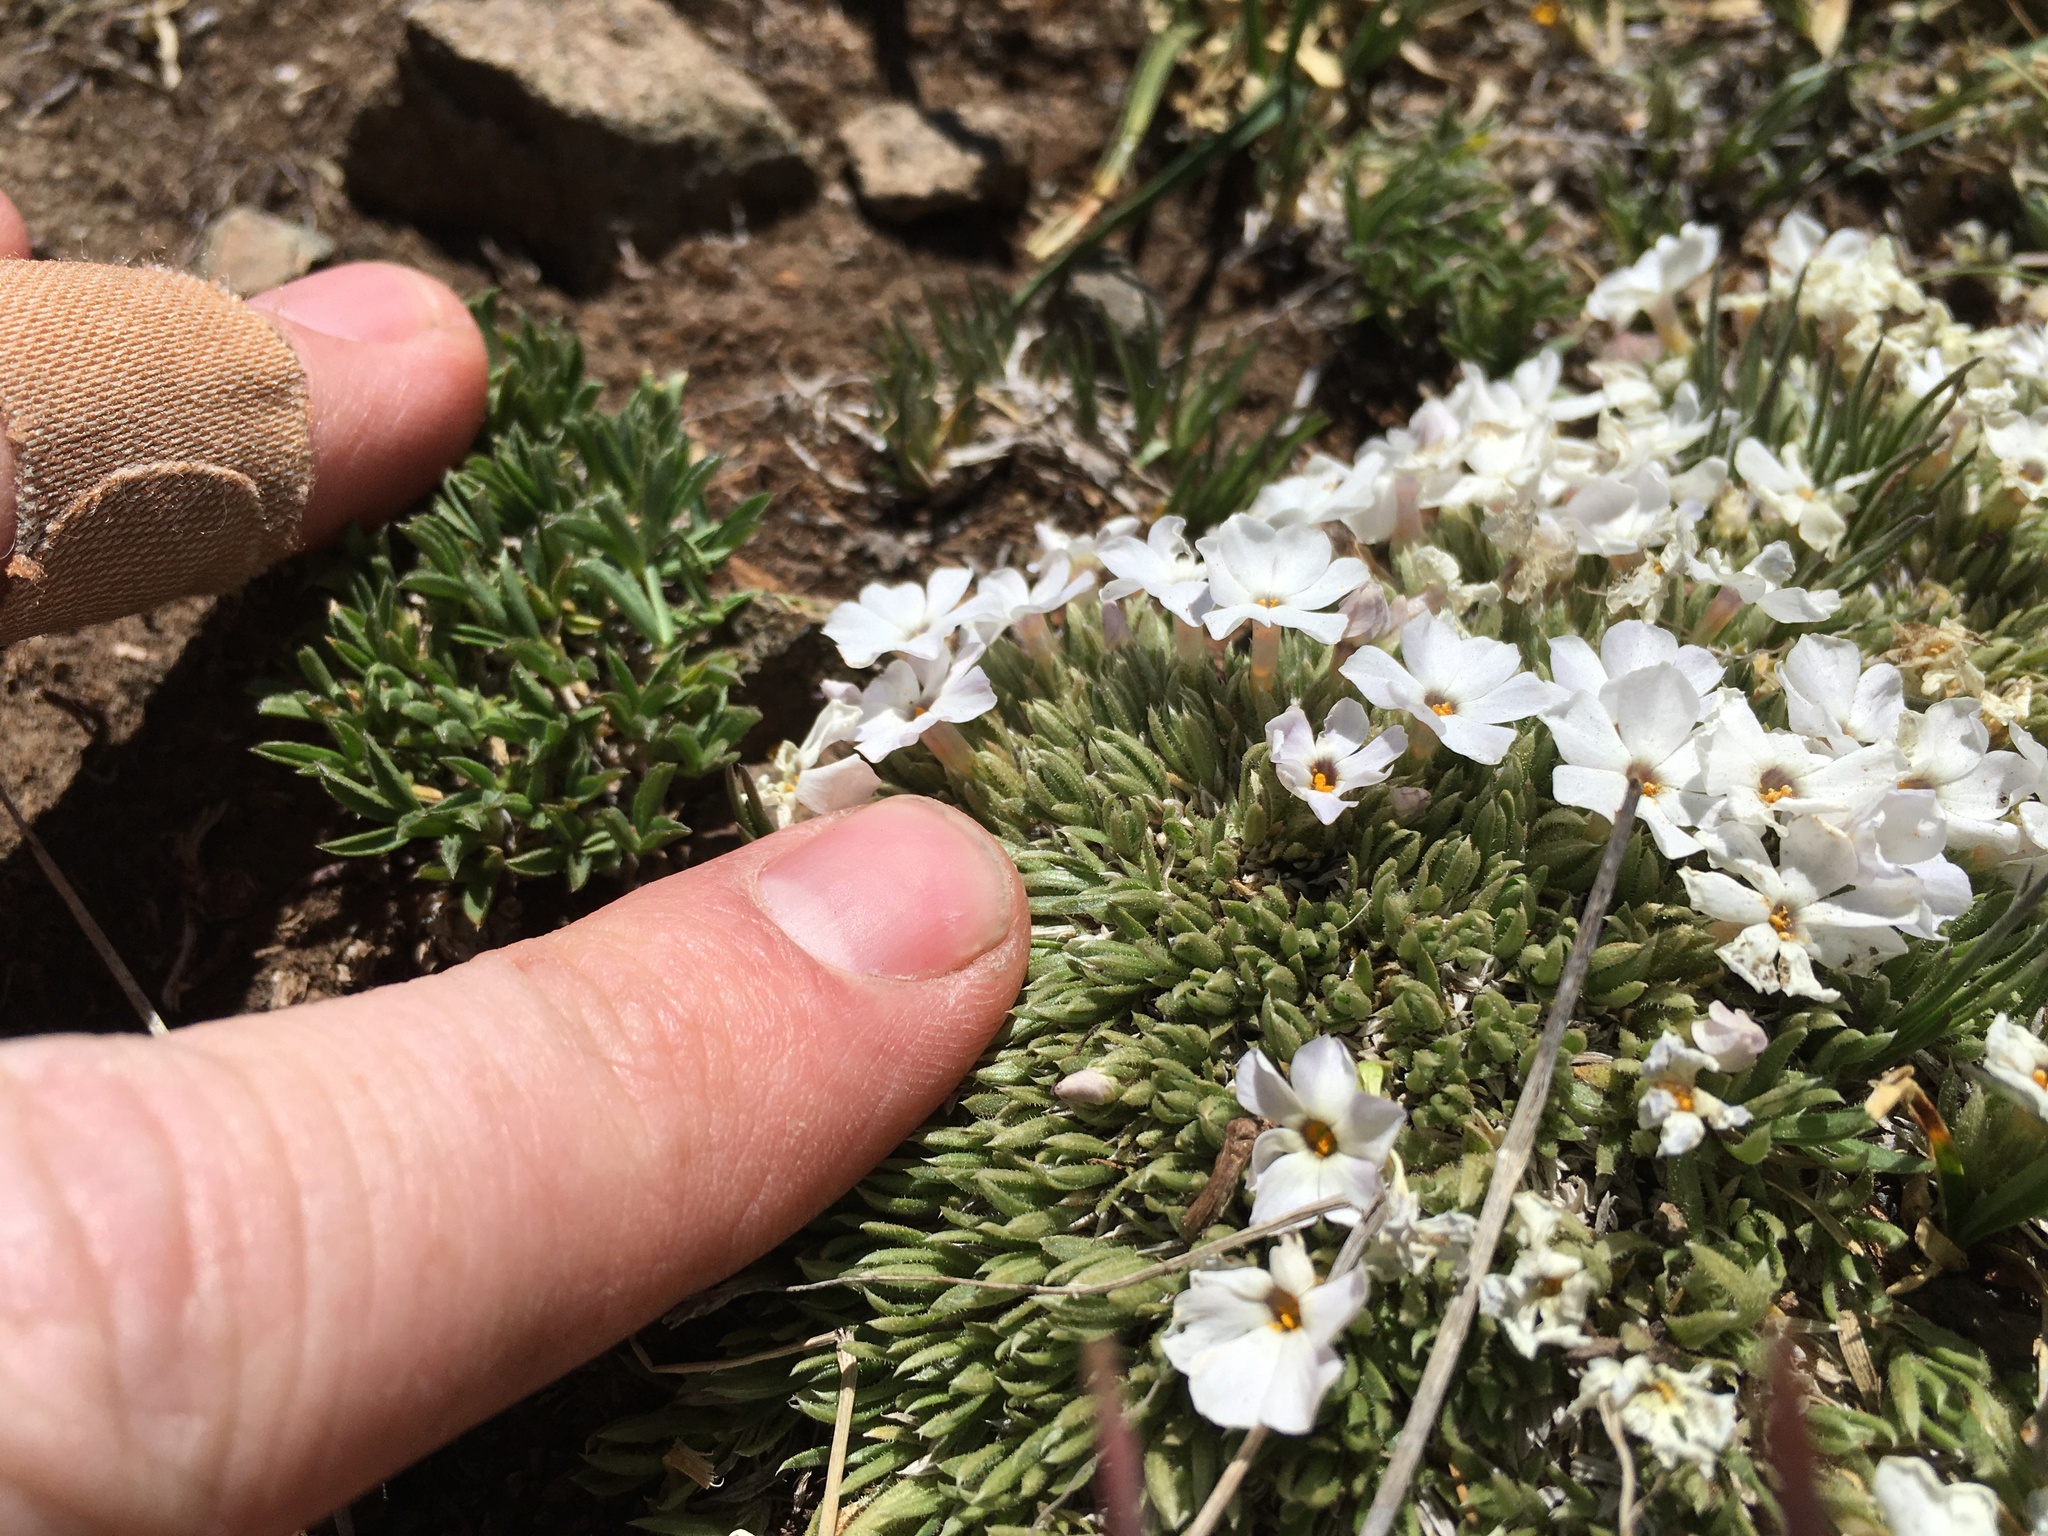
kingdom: Plantae
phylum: Tracheophyta
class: Magnoliopsida
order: Ericales
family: Polemoniaceae
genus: Phlox
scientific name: Phlox condensata
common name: Compact phlox
